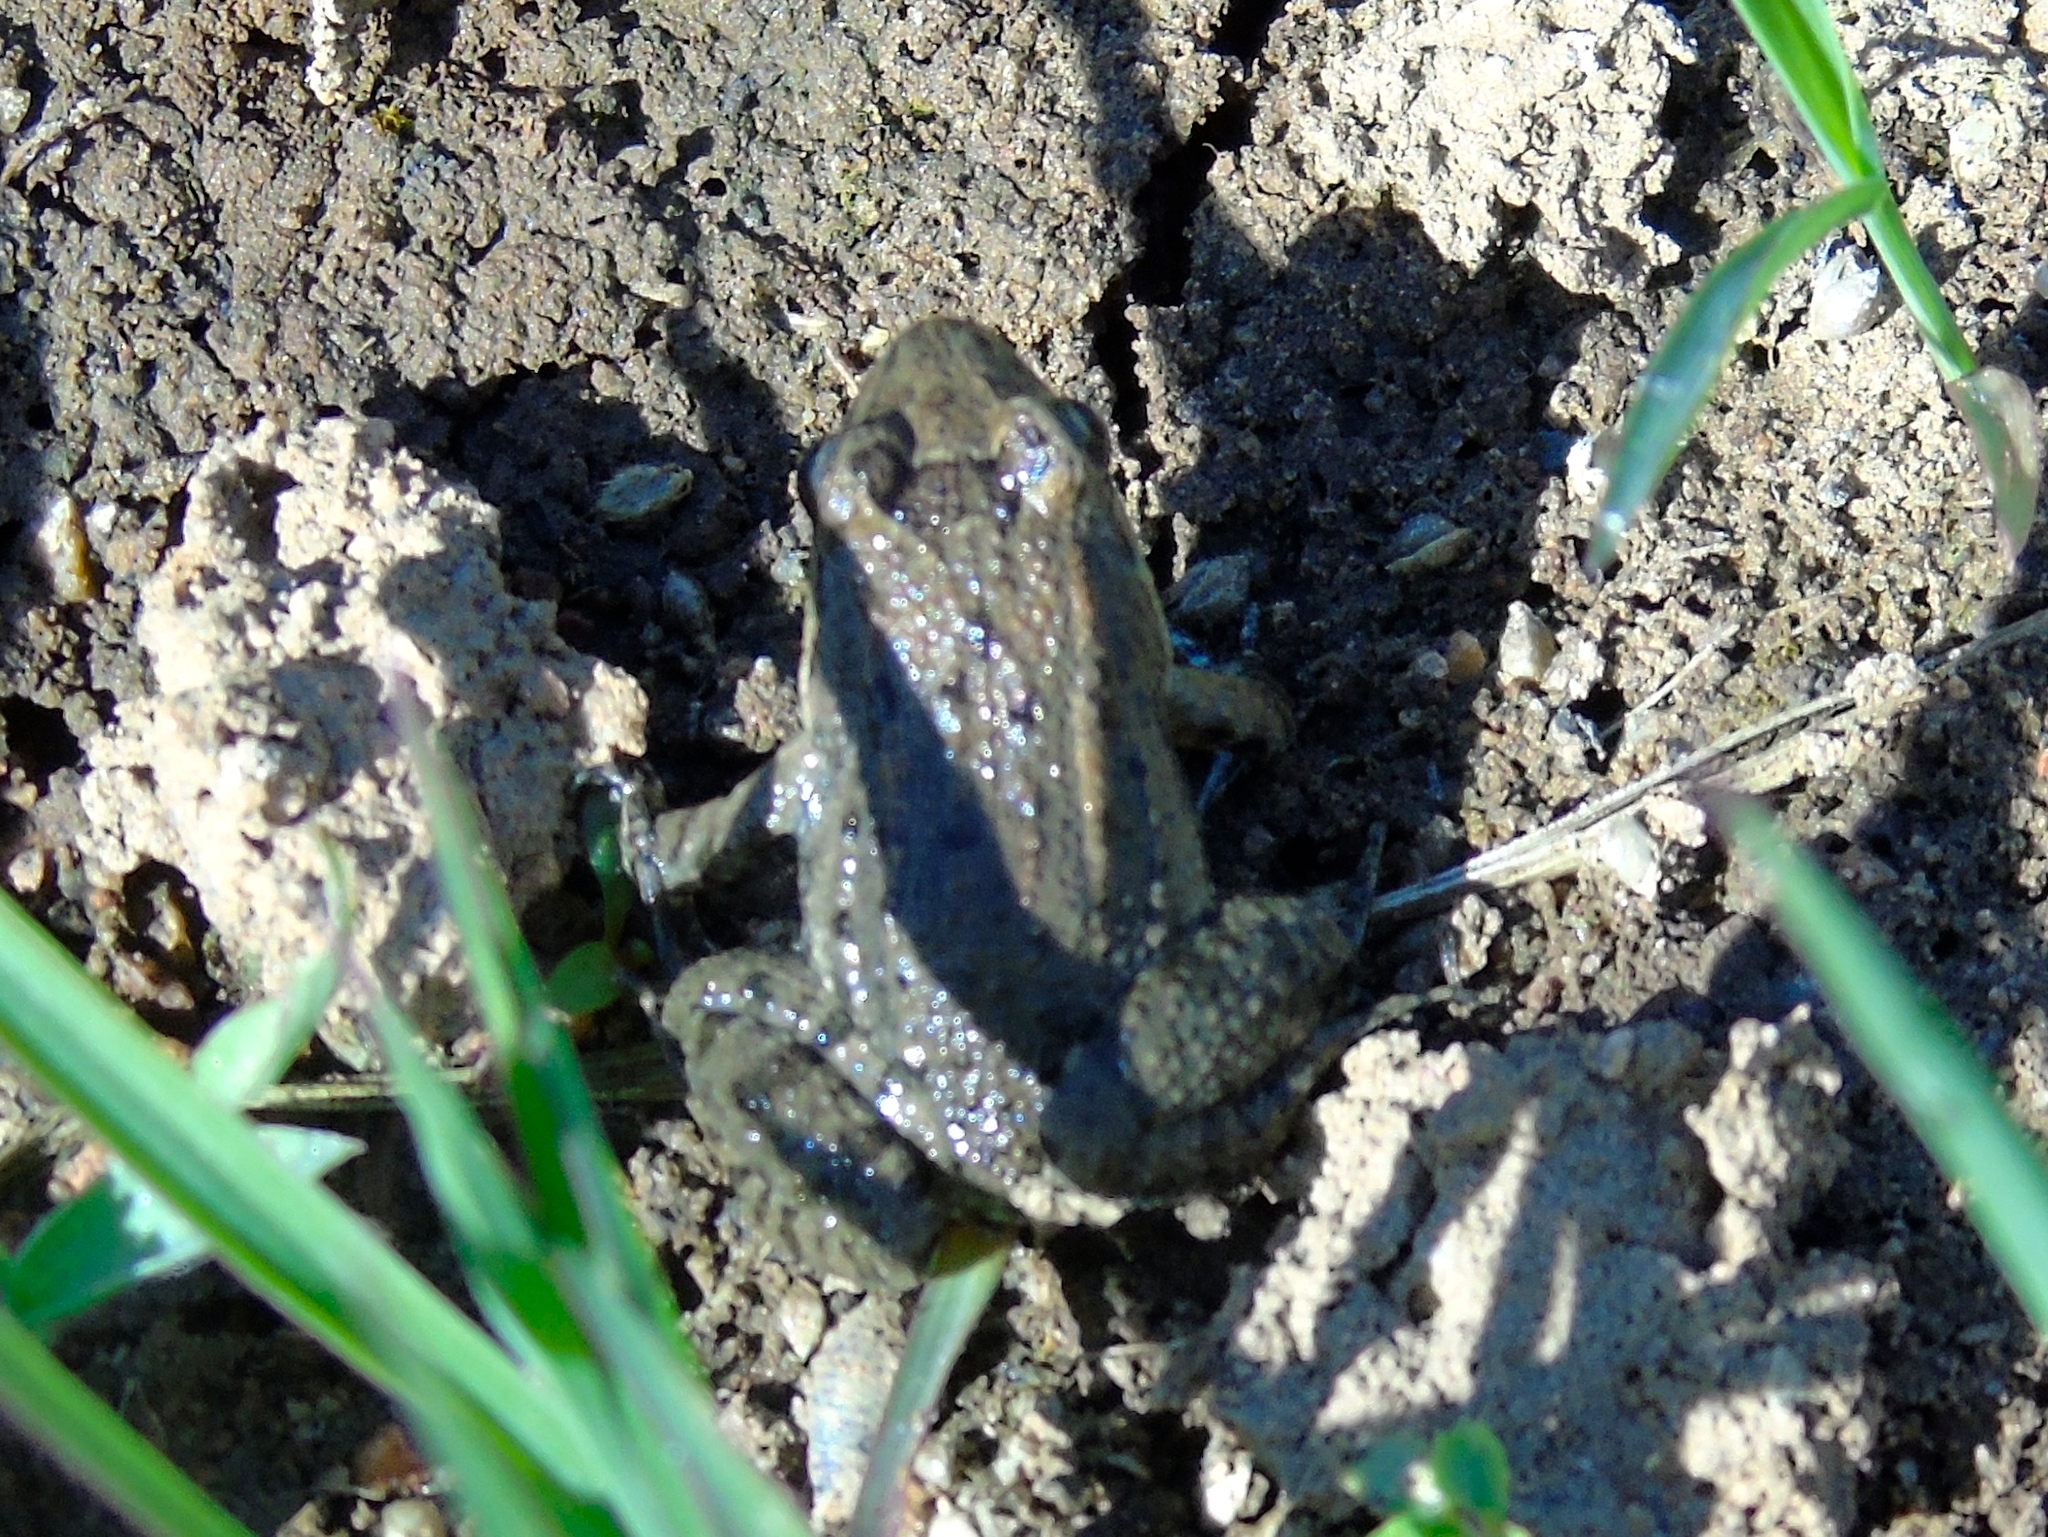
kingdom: Animalia
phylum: Chordata
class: Amphibia
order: Anura
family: Leptodactylidae
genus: Leptodactylus
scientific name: Leptodactylus melanonotus
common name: Fringe-toed foamfrog
